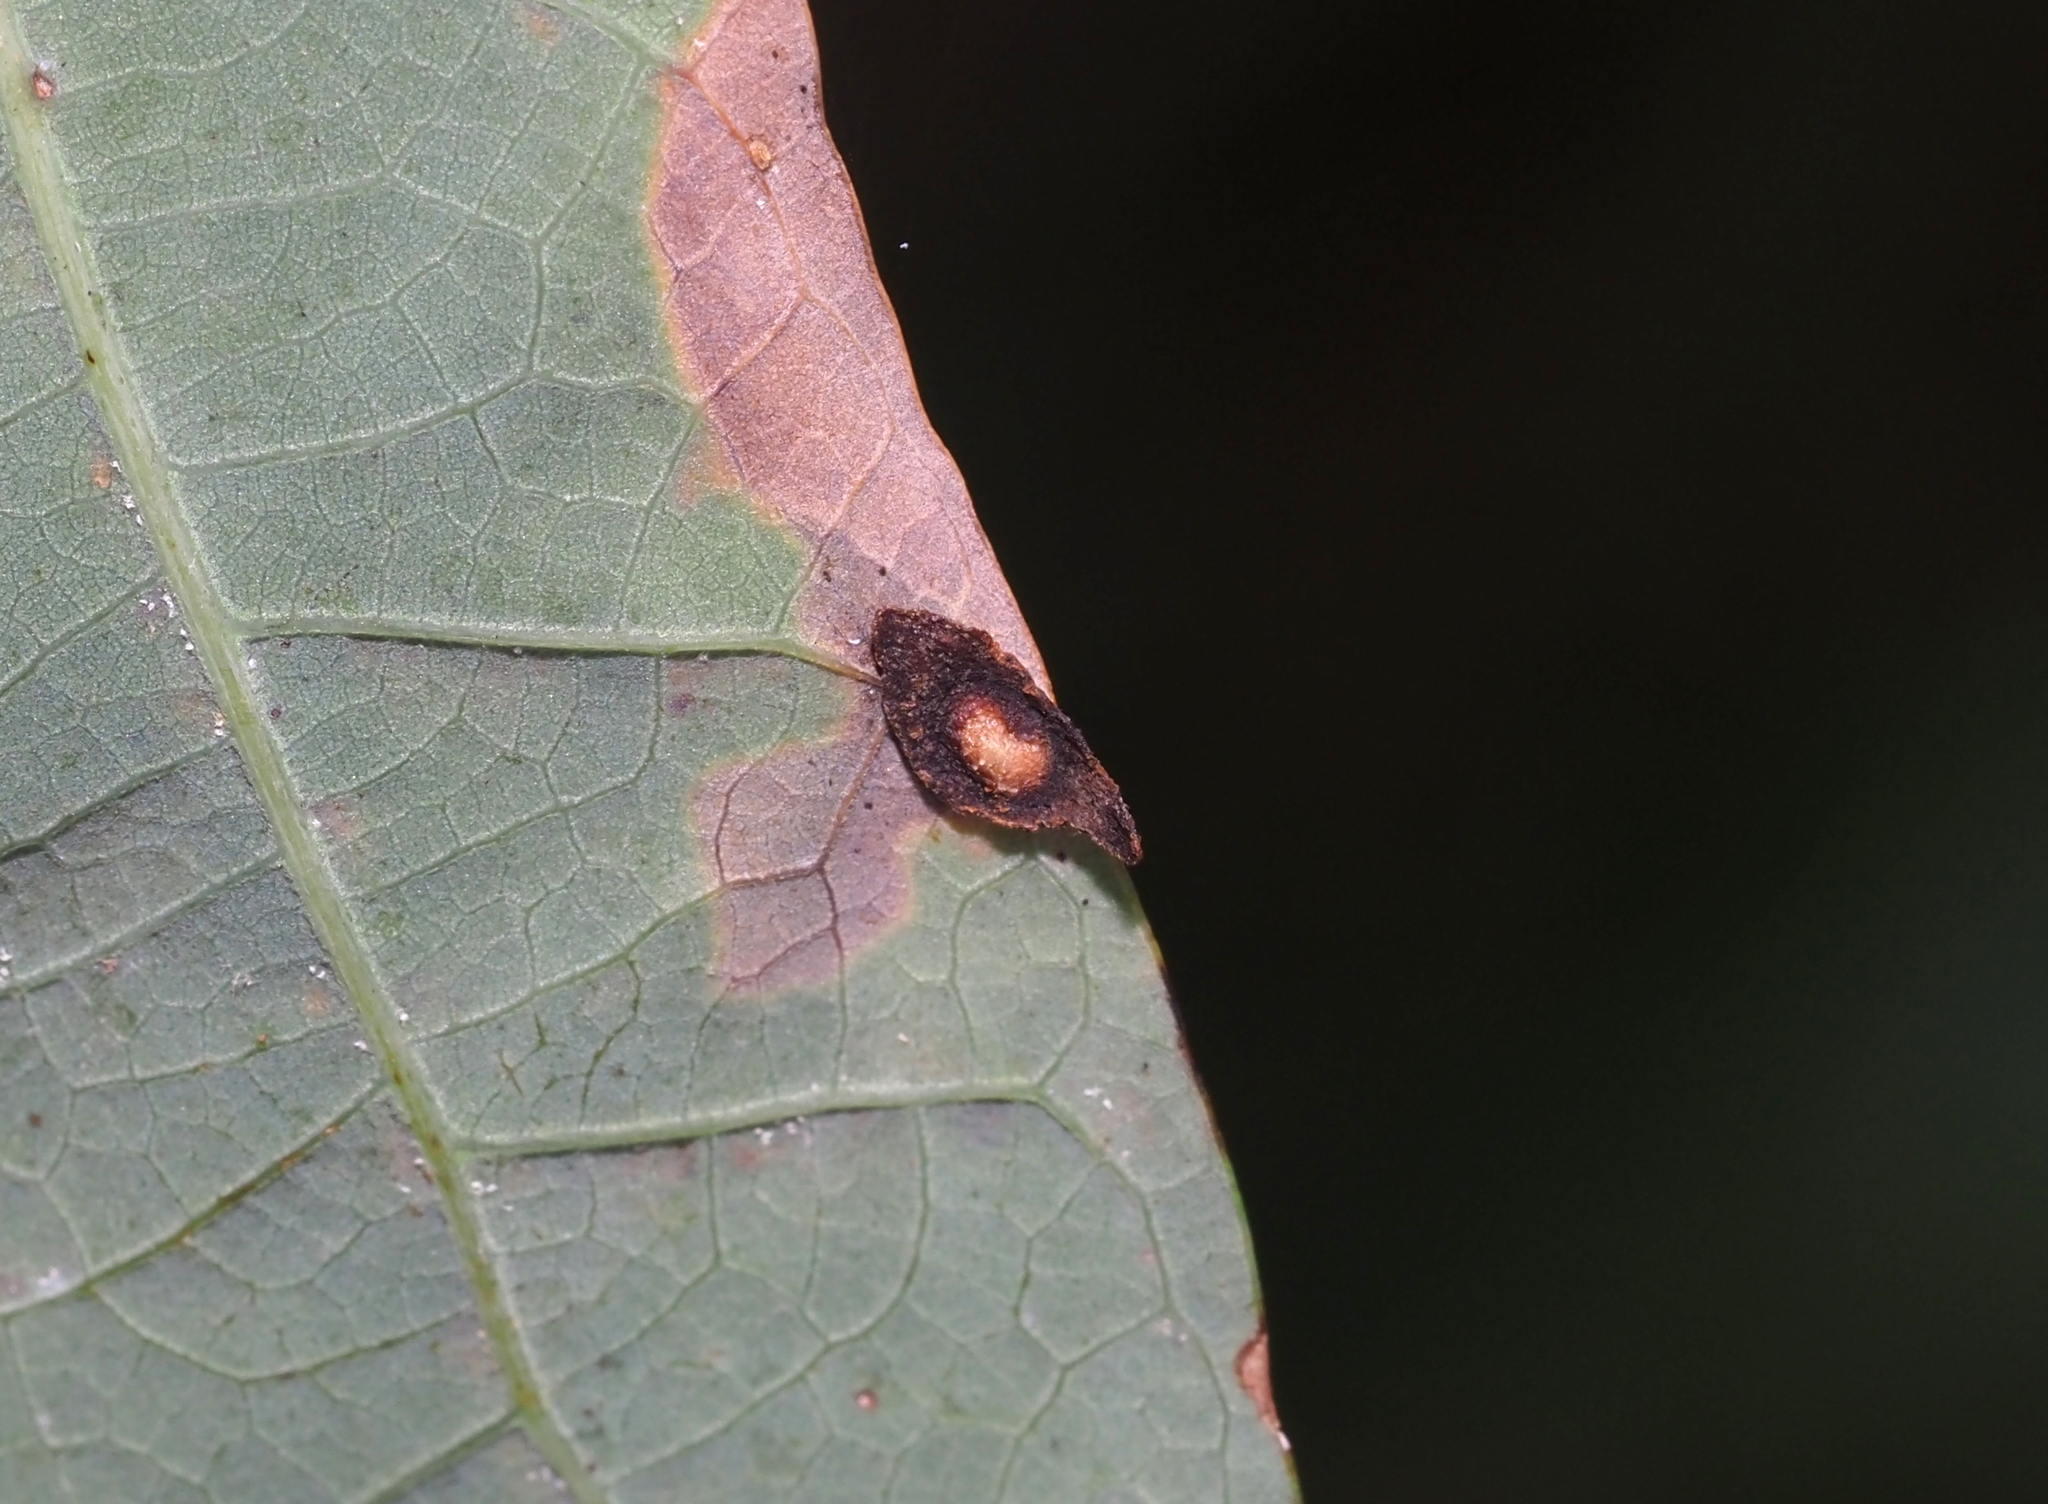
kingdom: Animalia
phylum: Arthropoda
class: Insecta
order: Hymenoptera
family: Cynipidae
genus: Phylloteras
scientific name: Phylloteras
